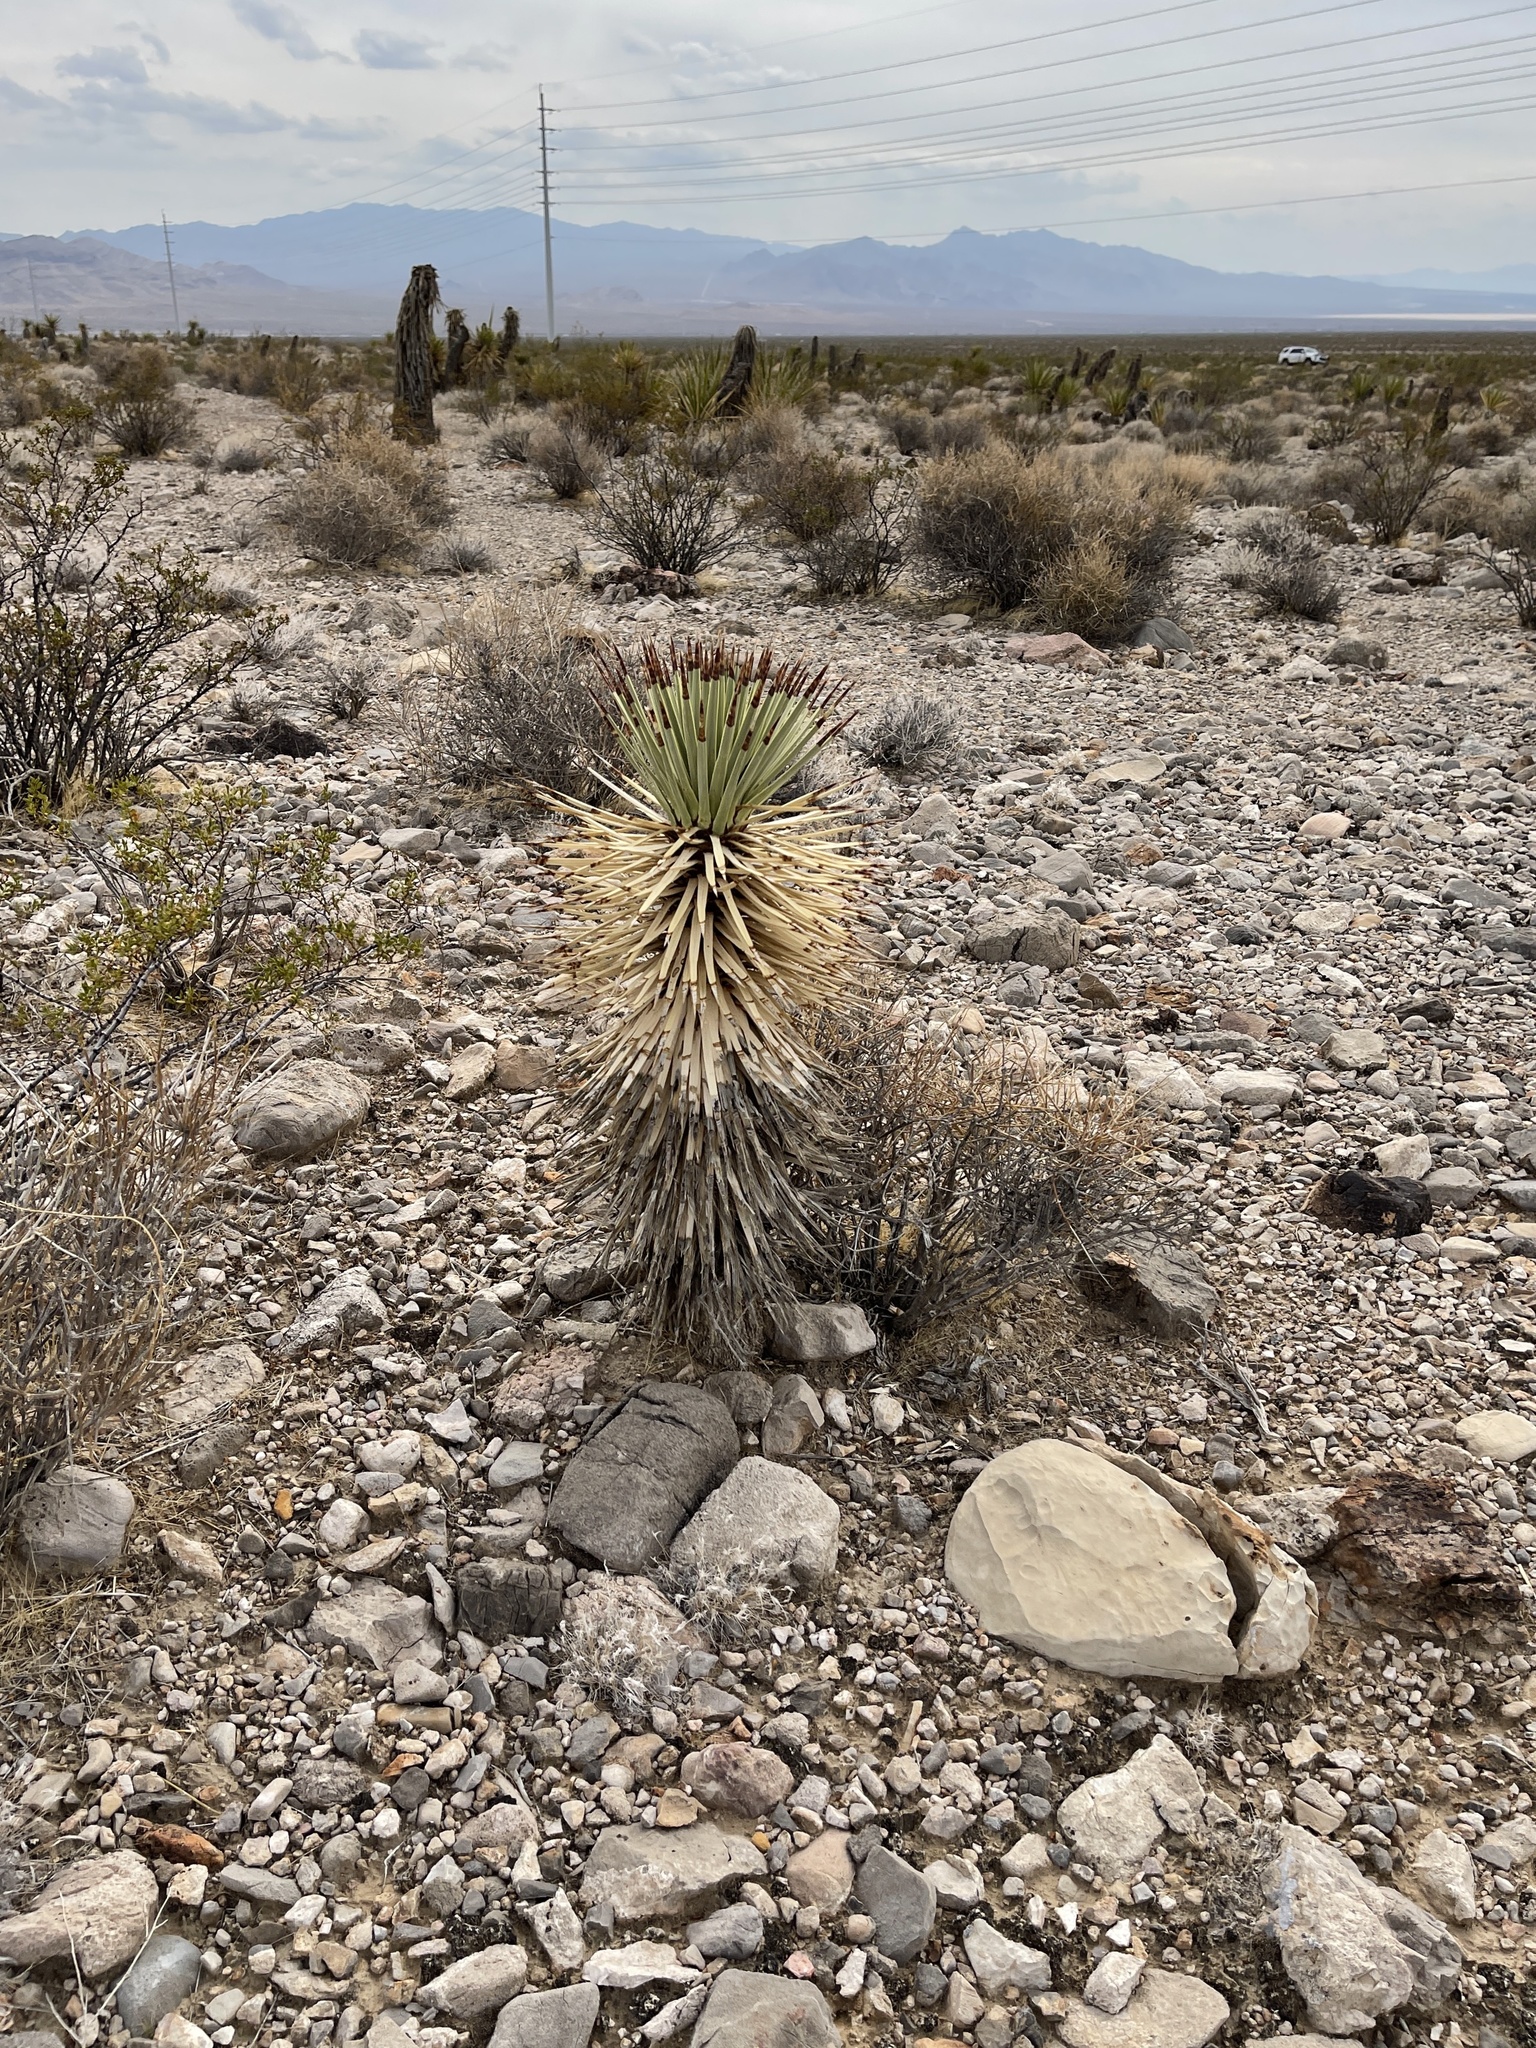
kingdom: Plantae
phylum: Tracheophyta
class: Liliopsida
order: Asparagales
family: Asparagaceae
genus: Yucca
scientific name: Yucca brevifolia
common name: Joshua tree
